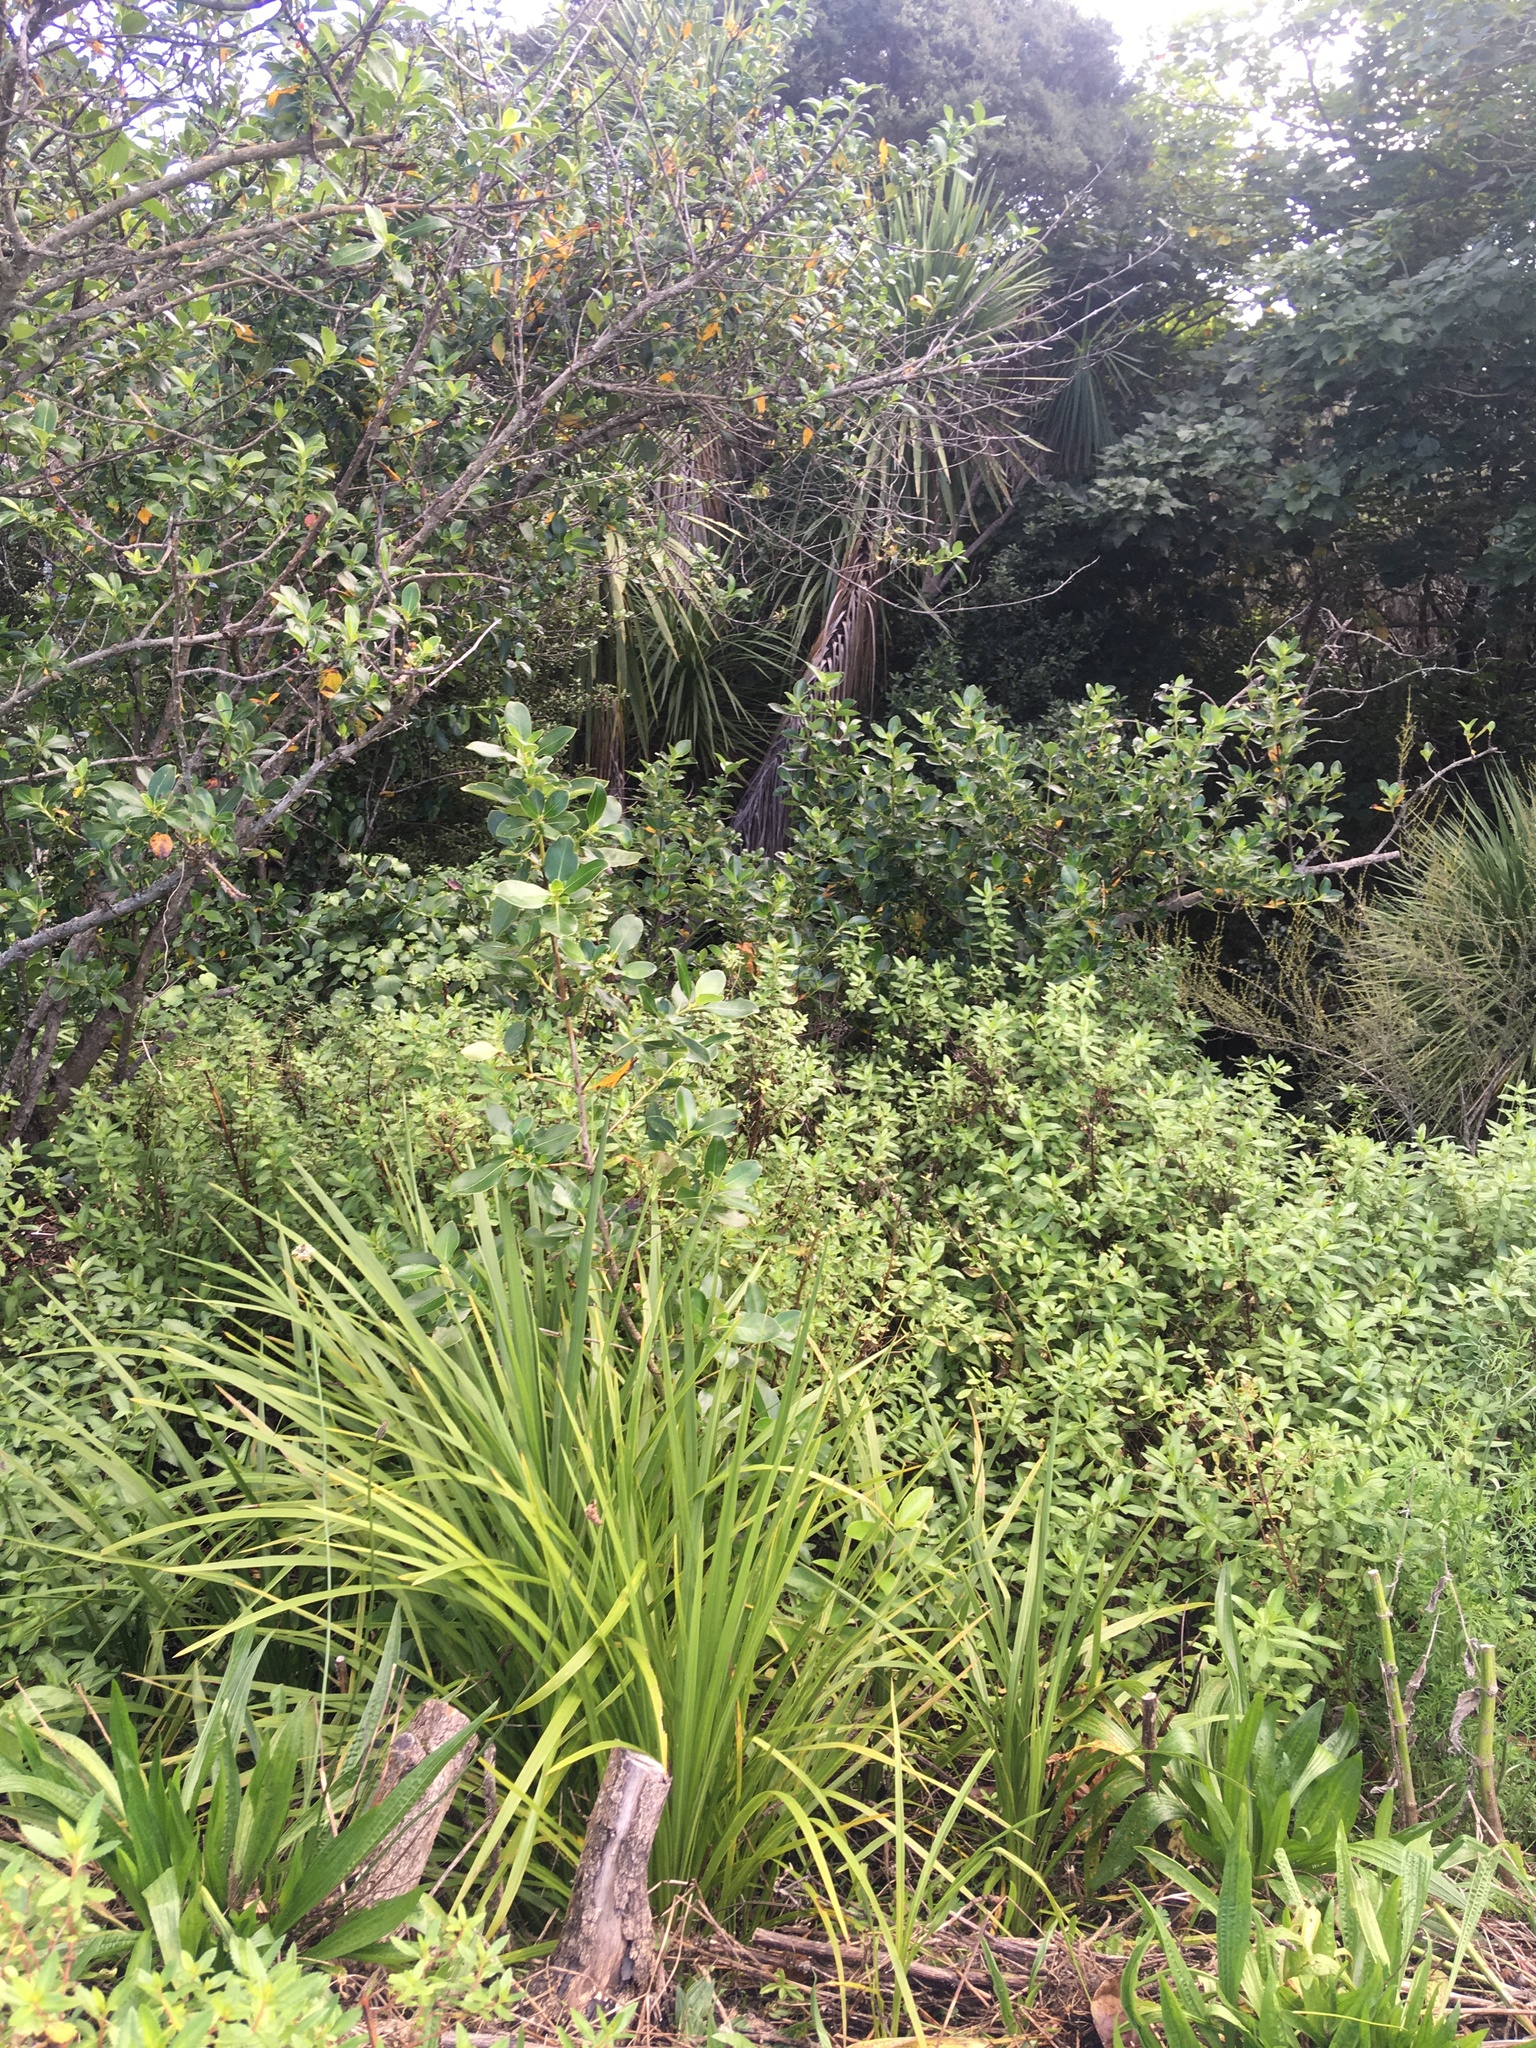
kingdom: Plantae
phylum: Tracheophyta
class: Magnoliopsida
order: Lamiales
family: Plantaginaceae
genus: Plantago
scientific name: Plantago lanceolata
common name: Ribwort plantain
